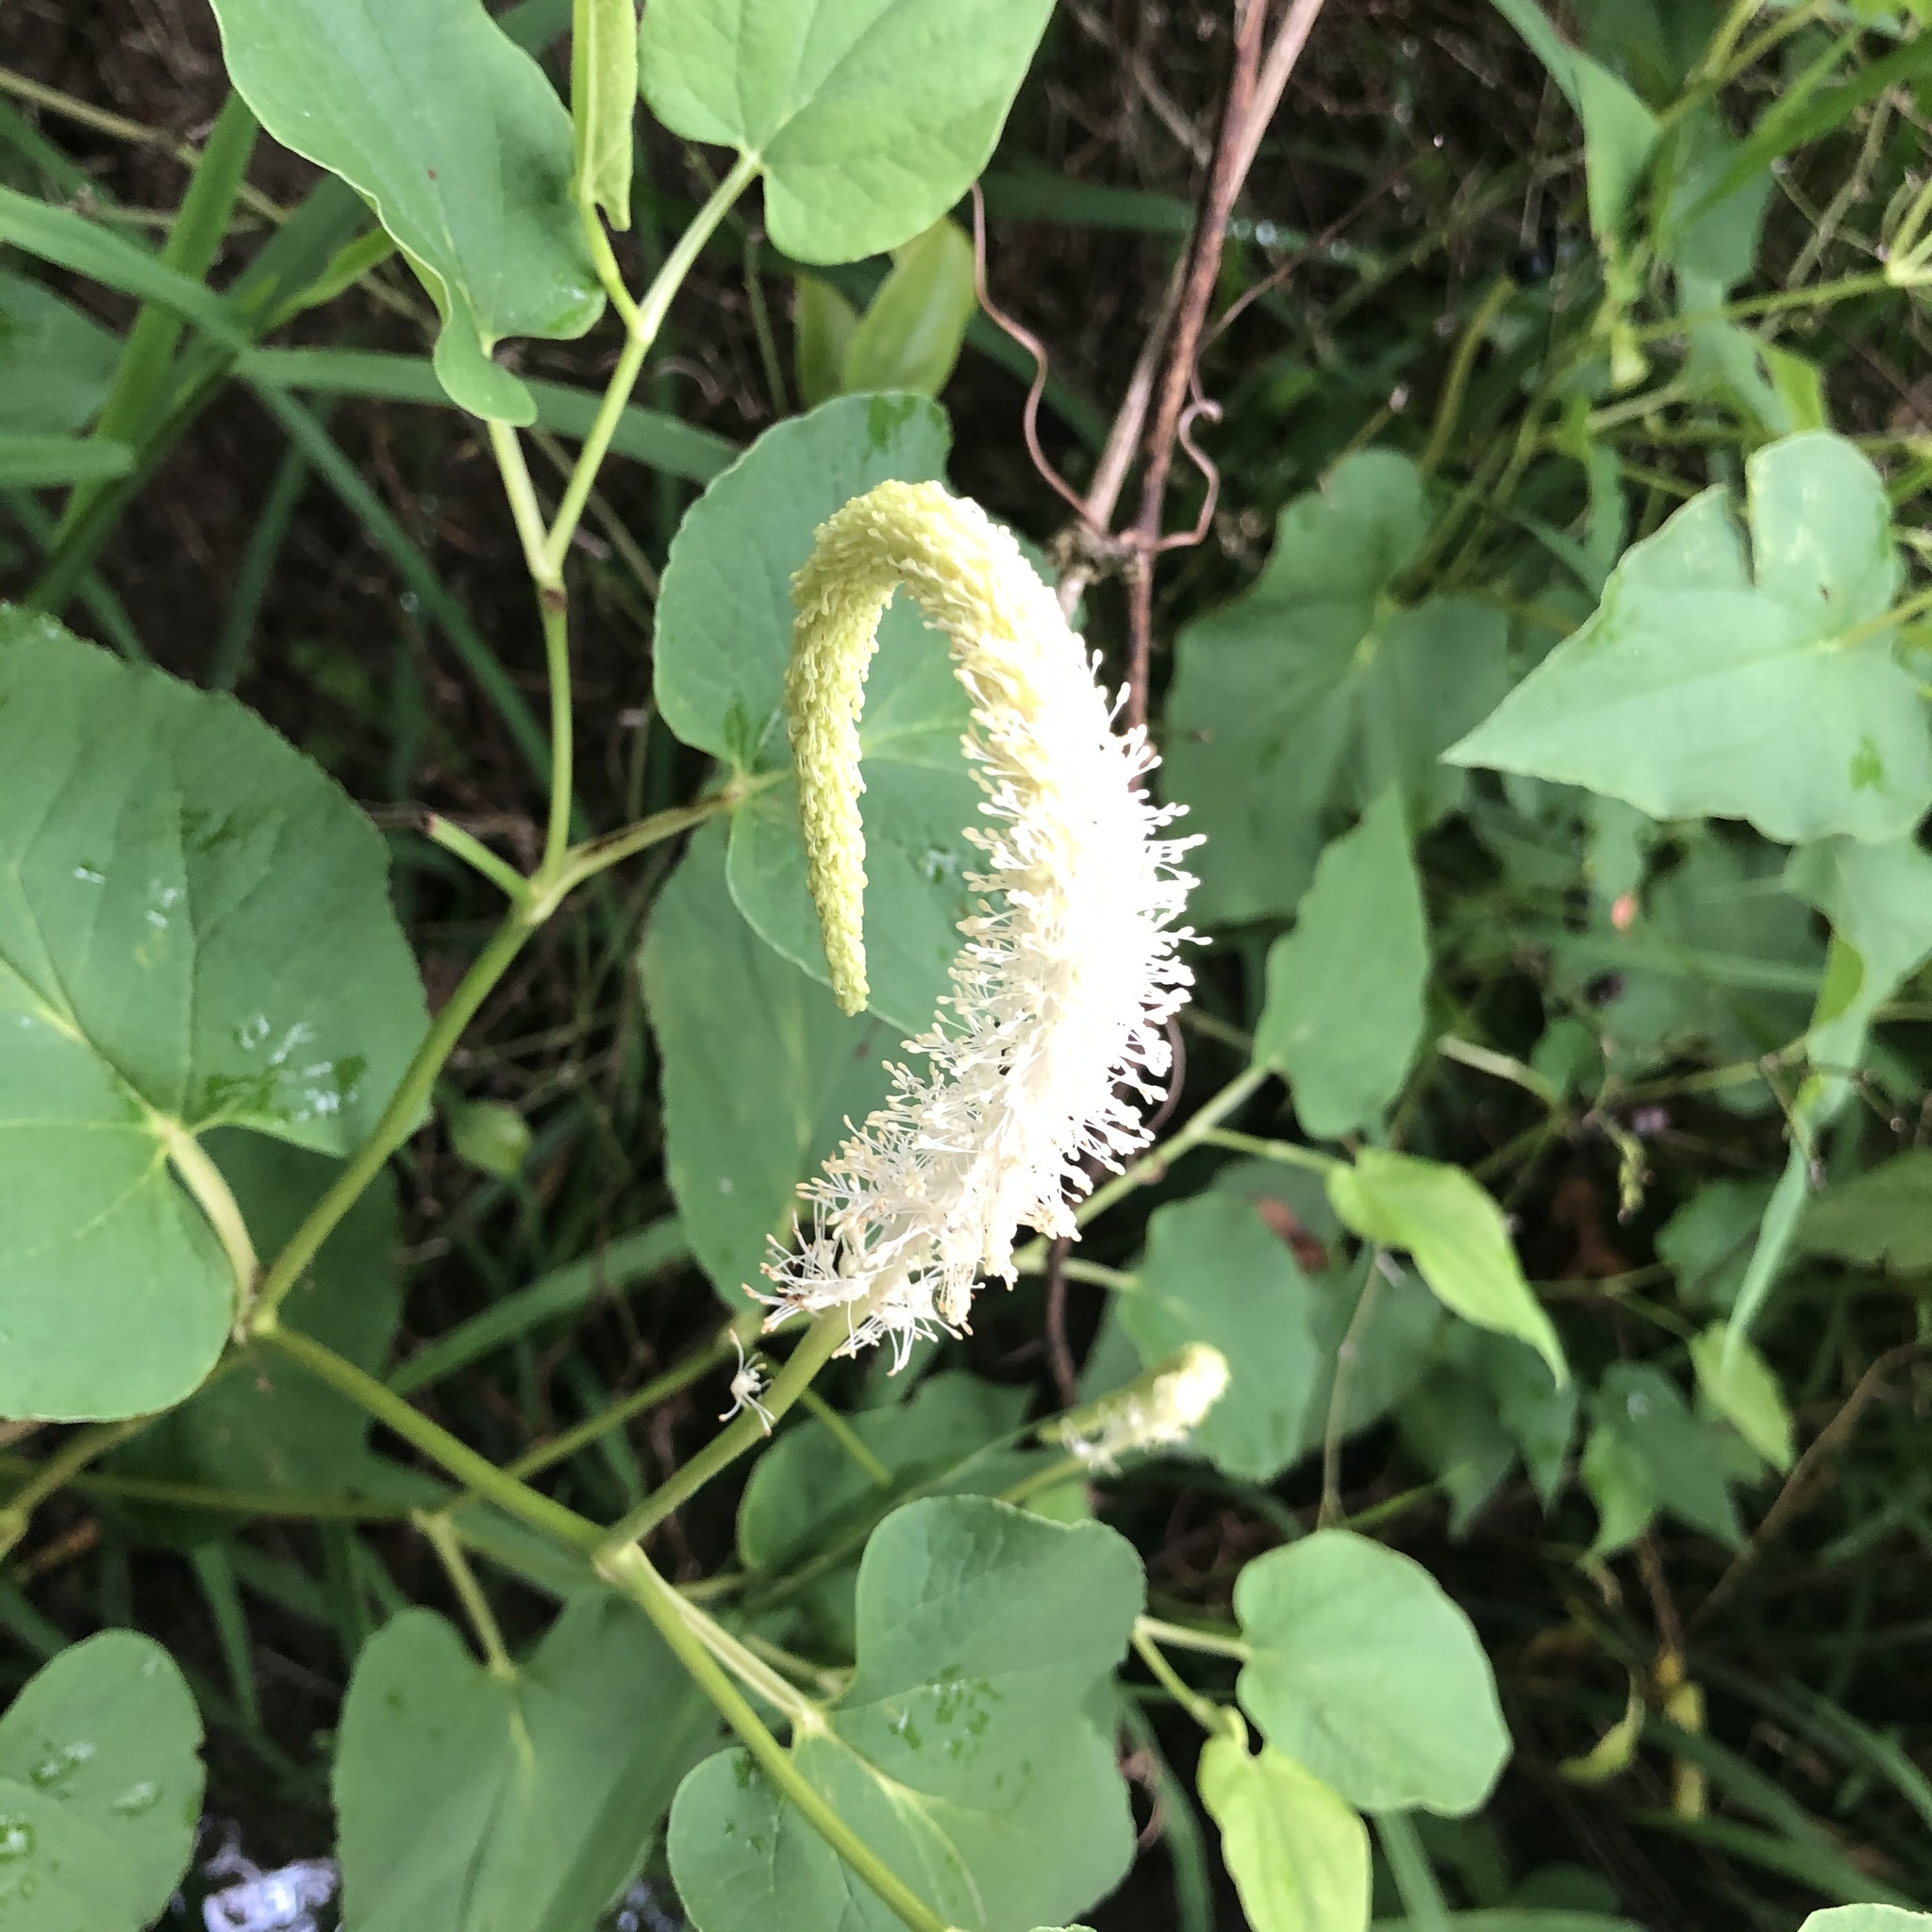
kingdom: Plantae
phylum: Tracheophyta
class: Magnoliopsida
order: Piperales
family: Saururaceae
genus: Saururus
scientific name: Saururus cernuus
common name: Lizard's-tail
